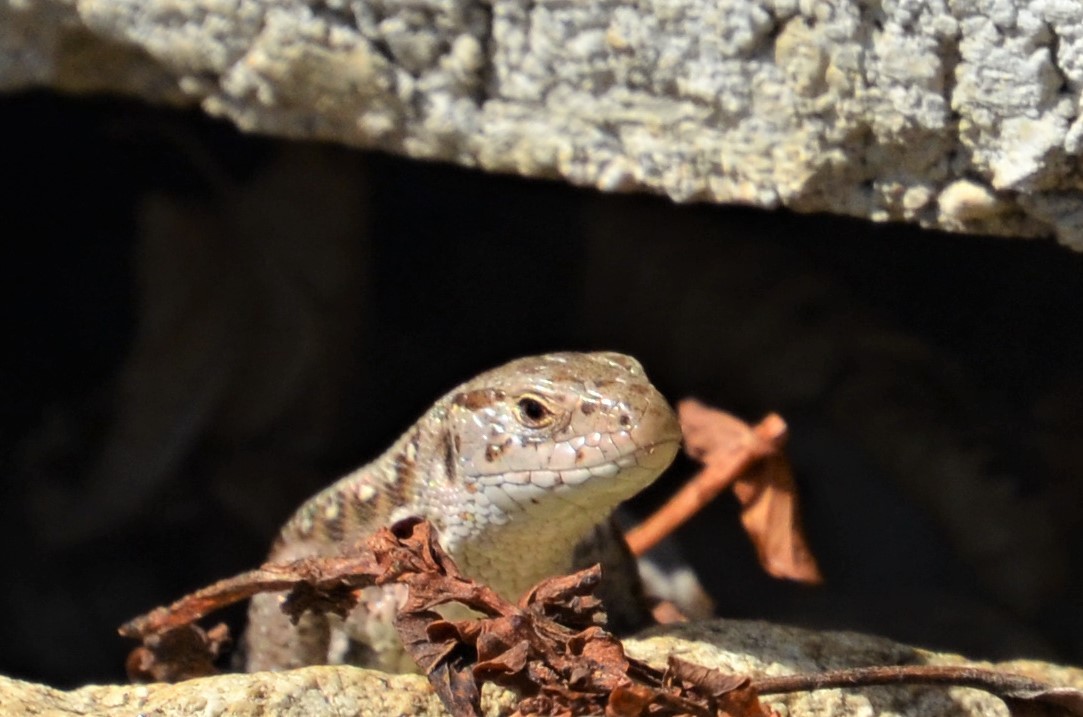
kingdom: Animalia
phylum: Chordata
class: Squamata
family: Lacertidae
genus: Lacerta
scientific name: Lacerta agilis
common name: Sand lizard
